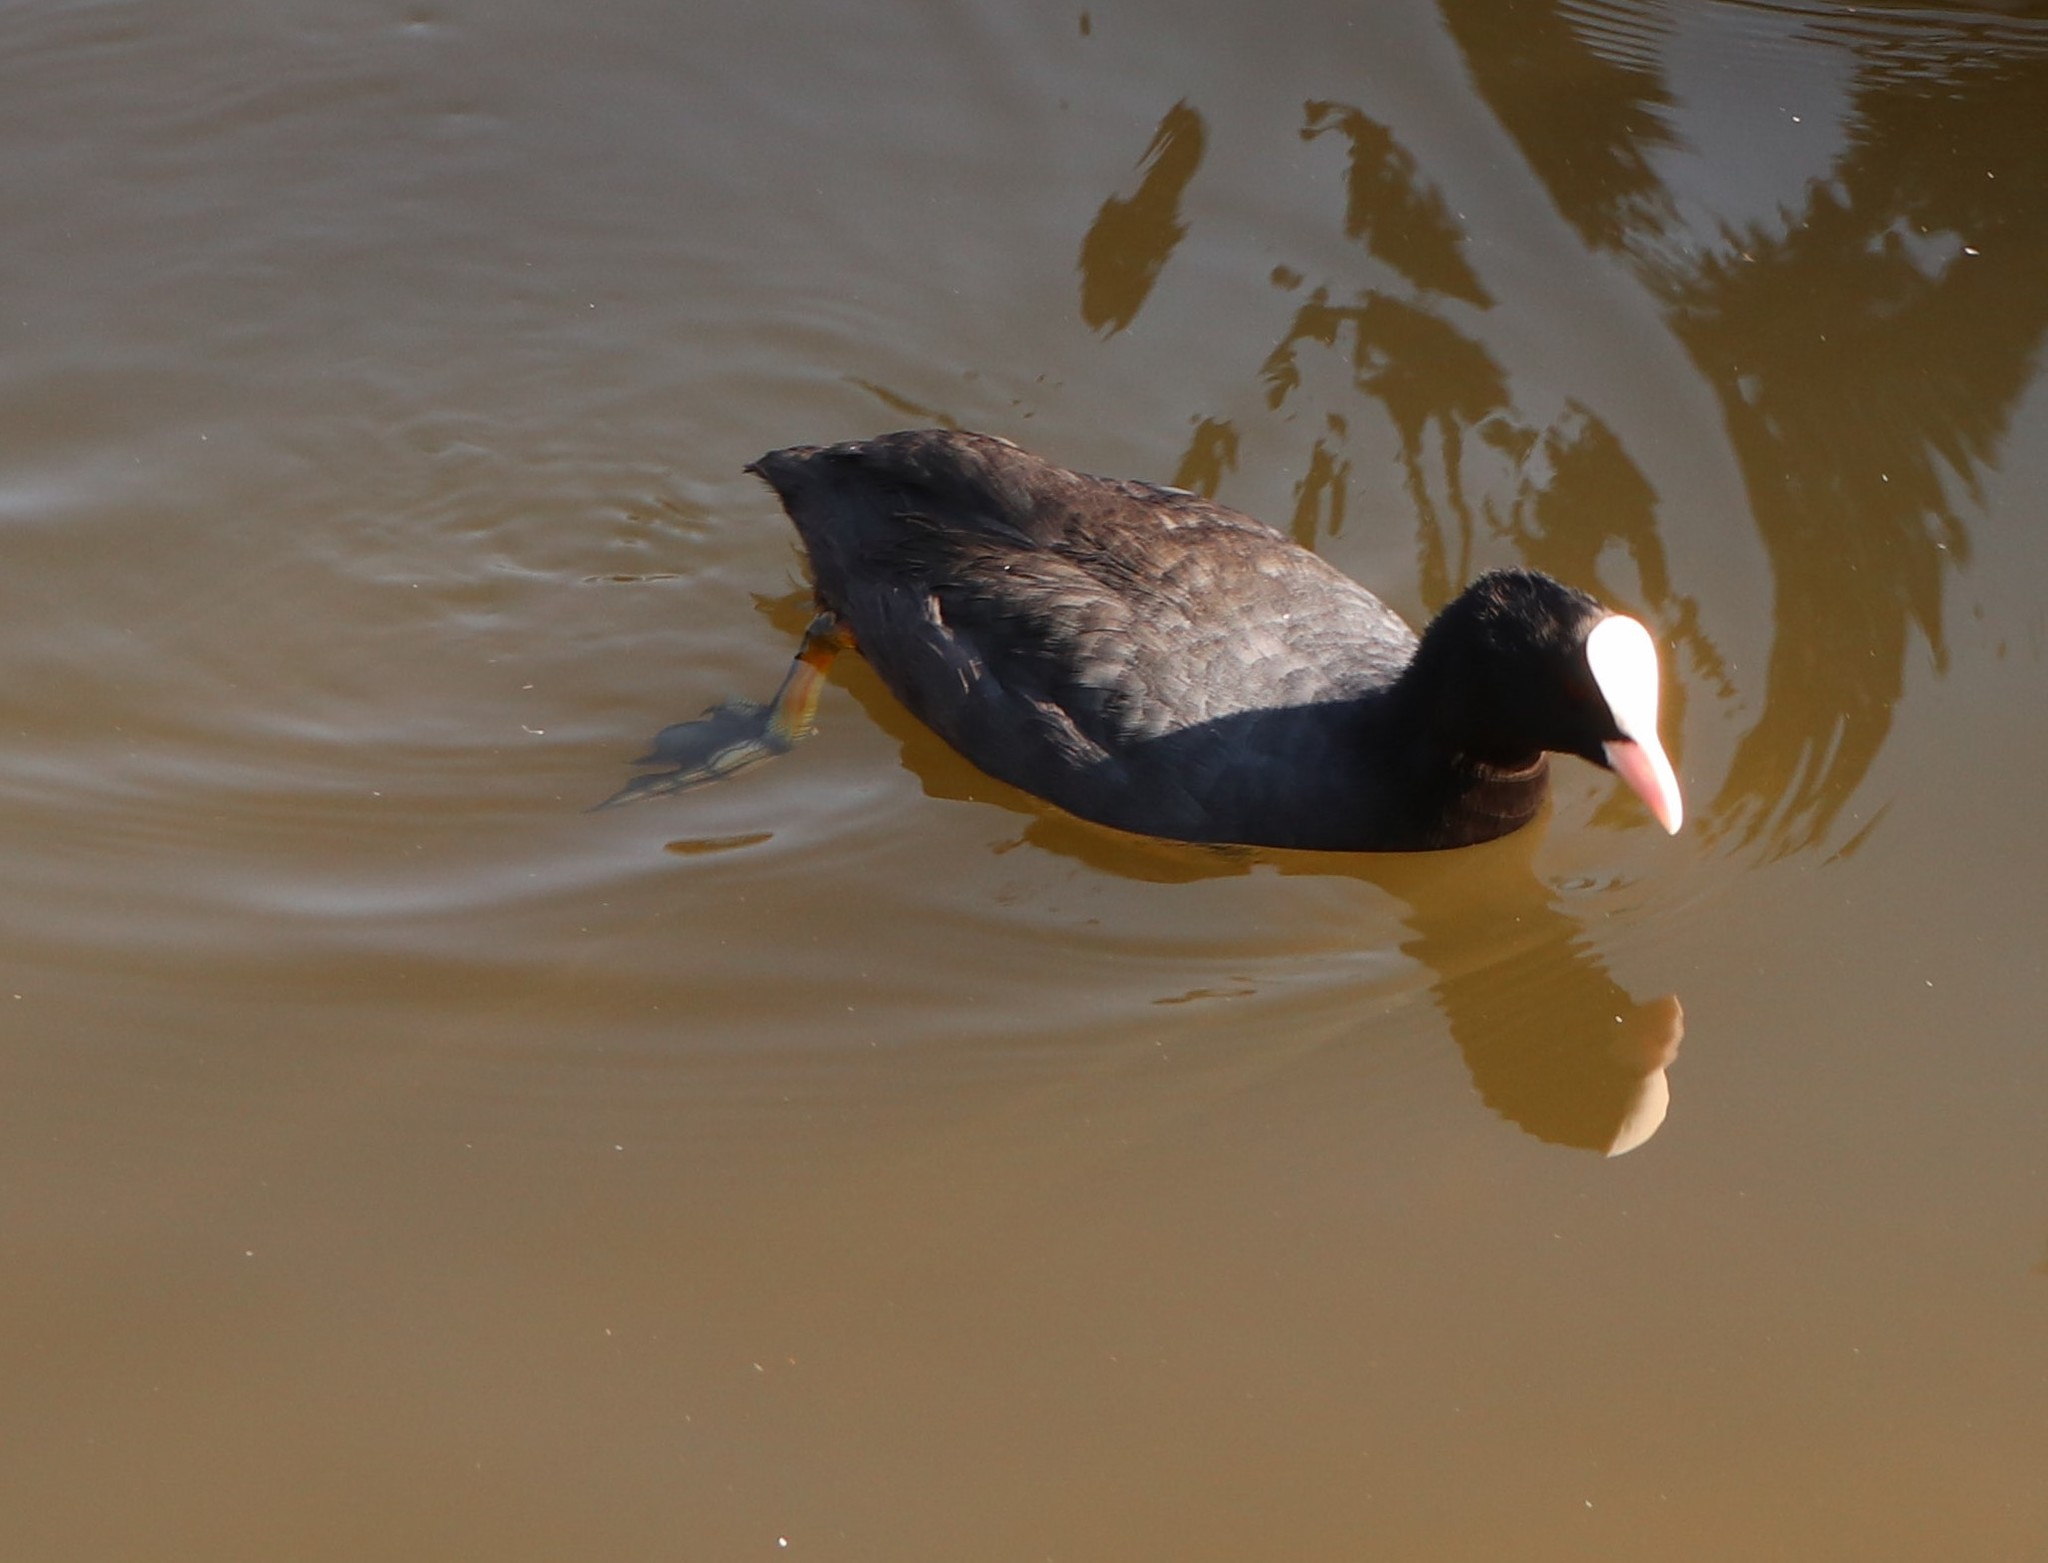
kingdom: Animalia
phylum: Chordata
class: Aves
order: Gruiformes
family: Rallidae
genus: Fulica
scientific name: Fulica atra
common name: Eurasian coot
